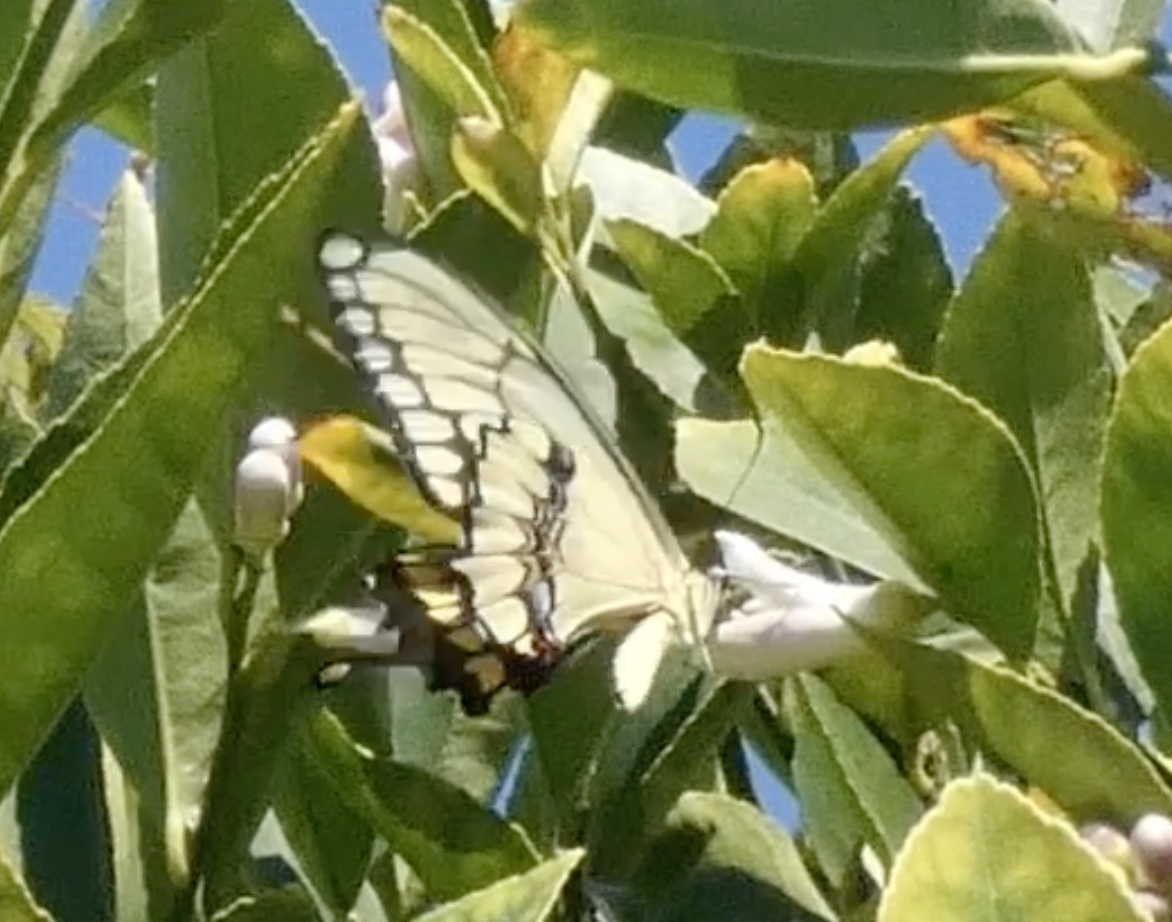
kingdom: Animalia
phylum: Arthropoda
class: Insecta
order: Lepidoptera
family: Papilionidae
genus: Papilio
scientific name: Papilio rumiko
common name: Western giant swallowtail
